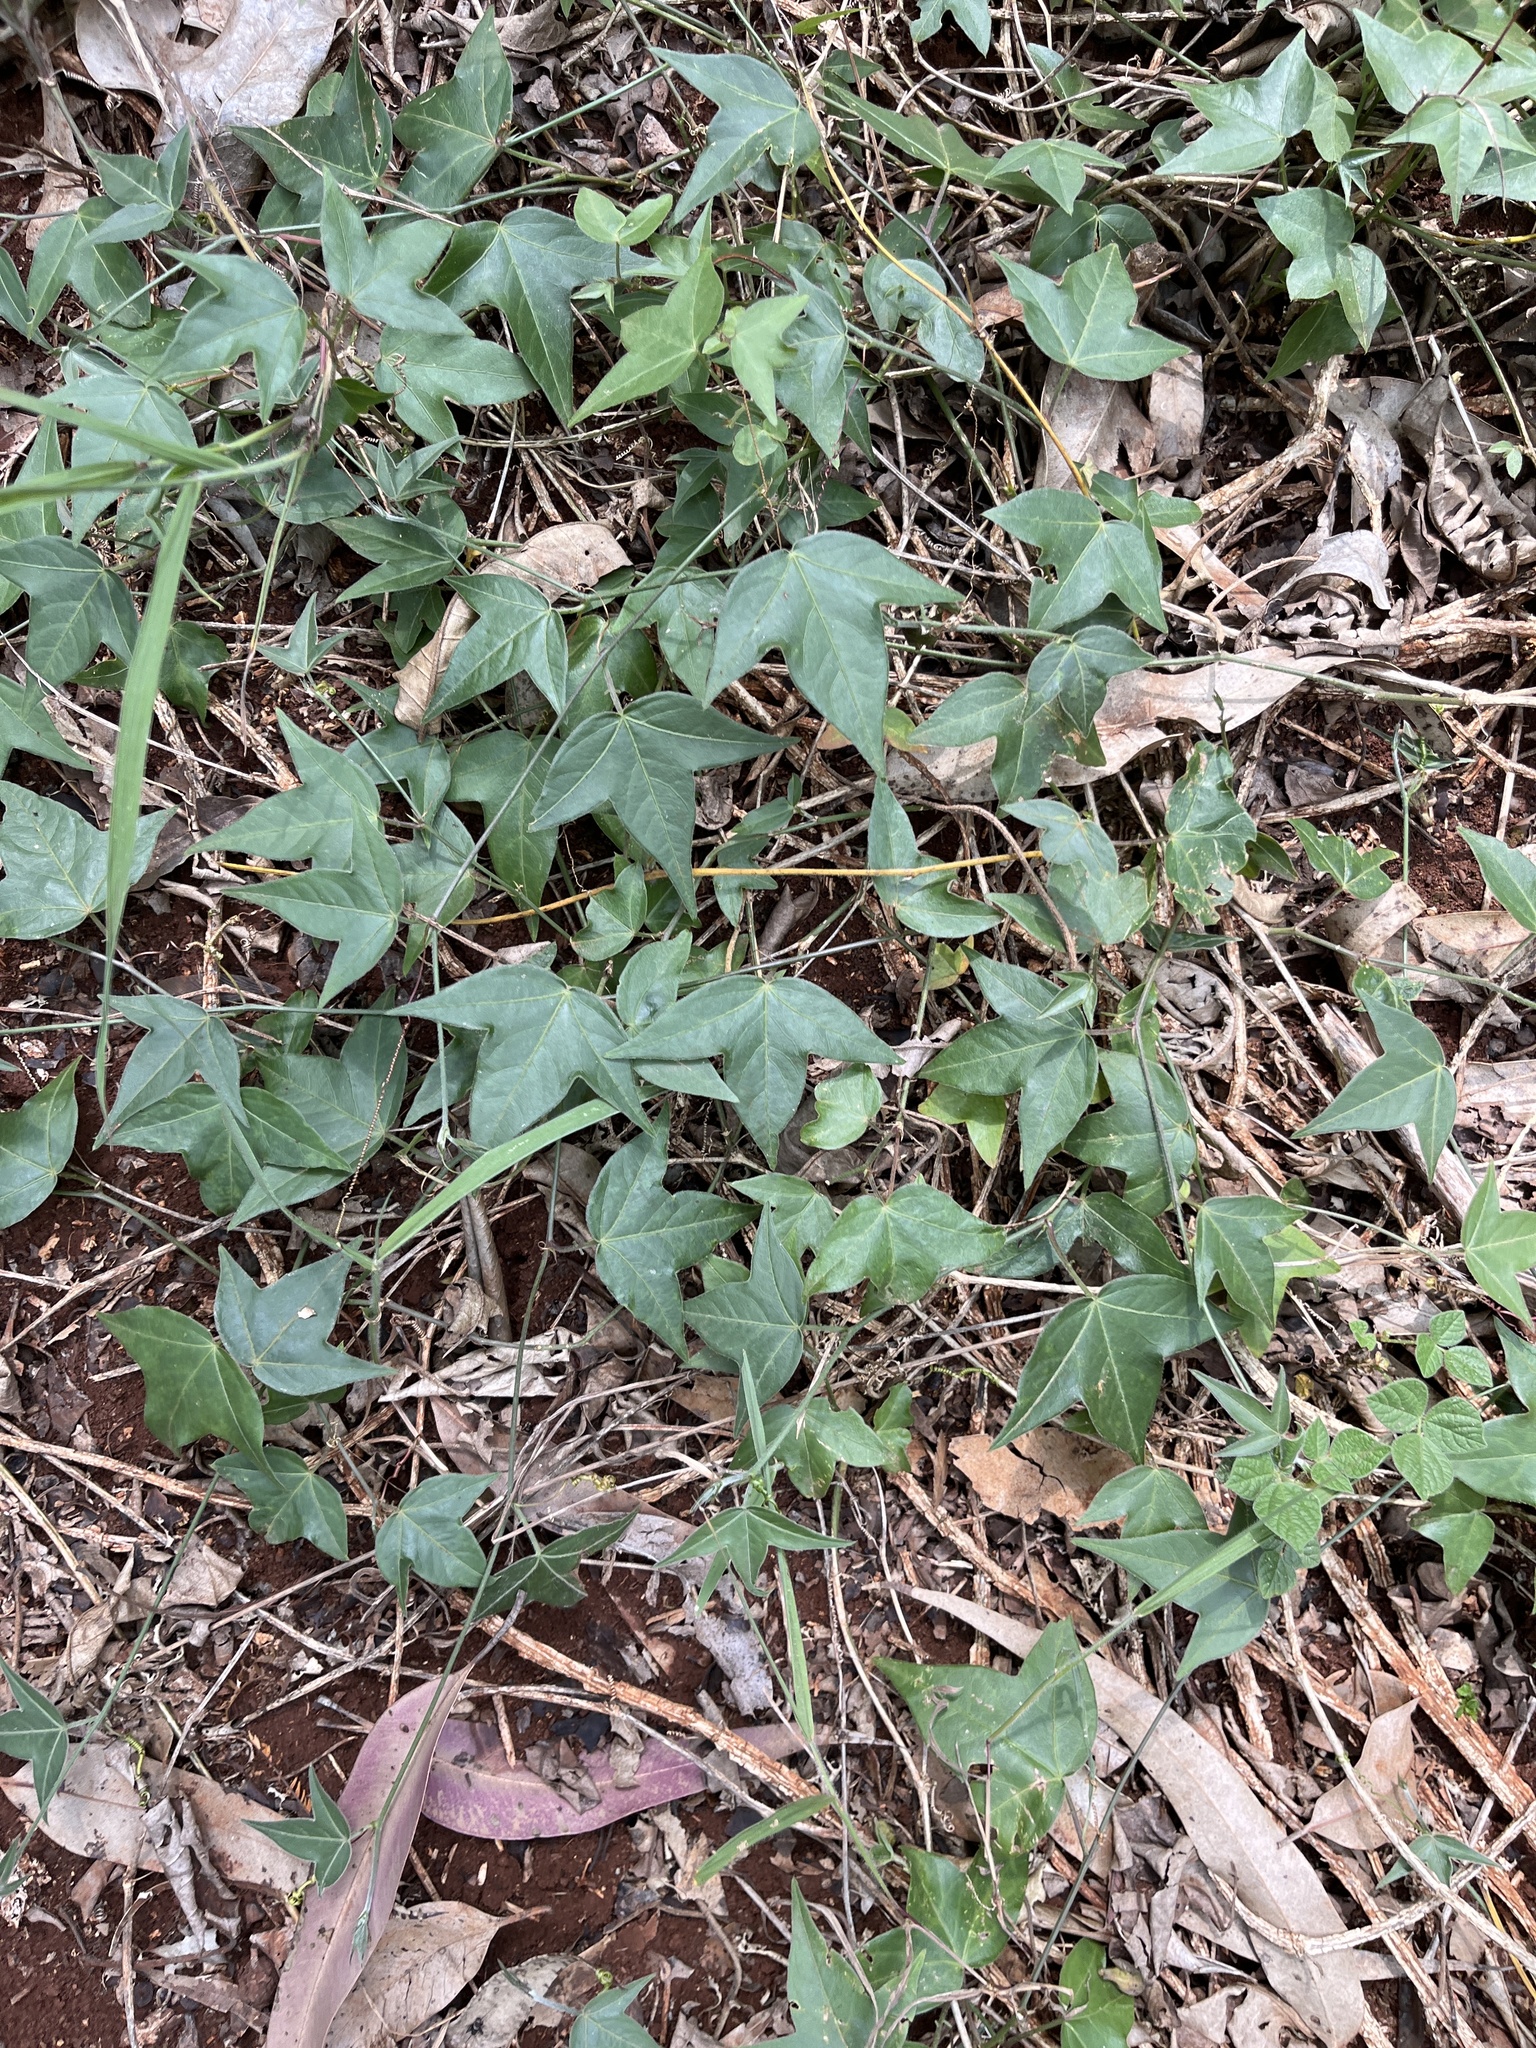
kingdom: Plantae
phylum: Tracheophyta
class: Magnoliopsida
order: Malpighiales
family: Passifloraceae
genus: Passiflora
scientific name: Passiflora suberosa
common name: Wild passionfruit
